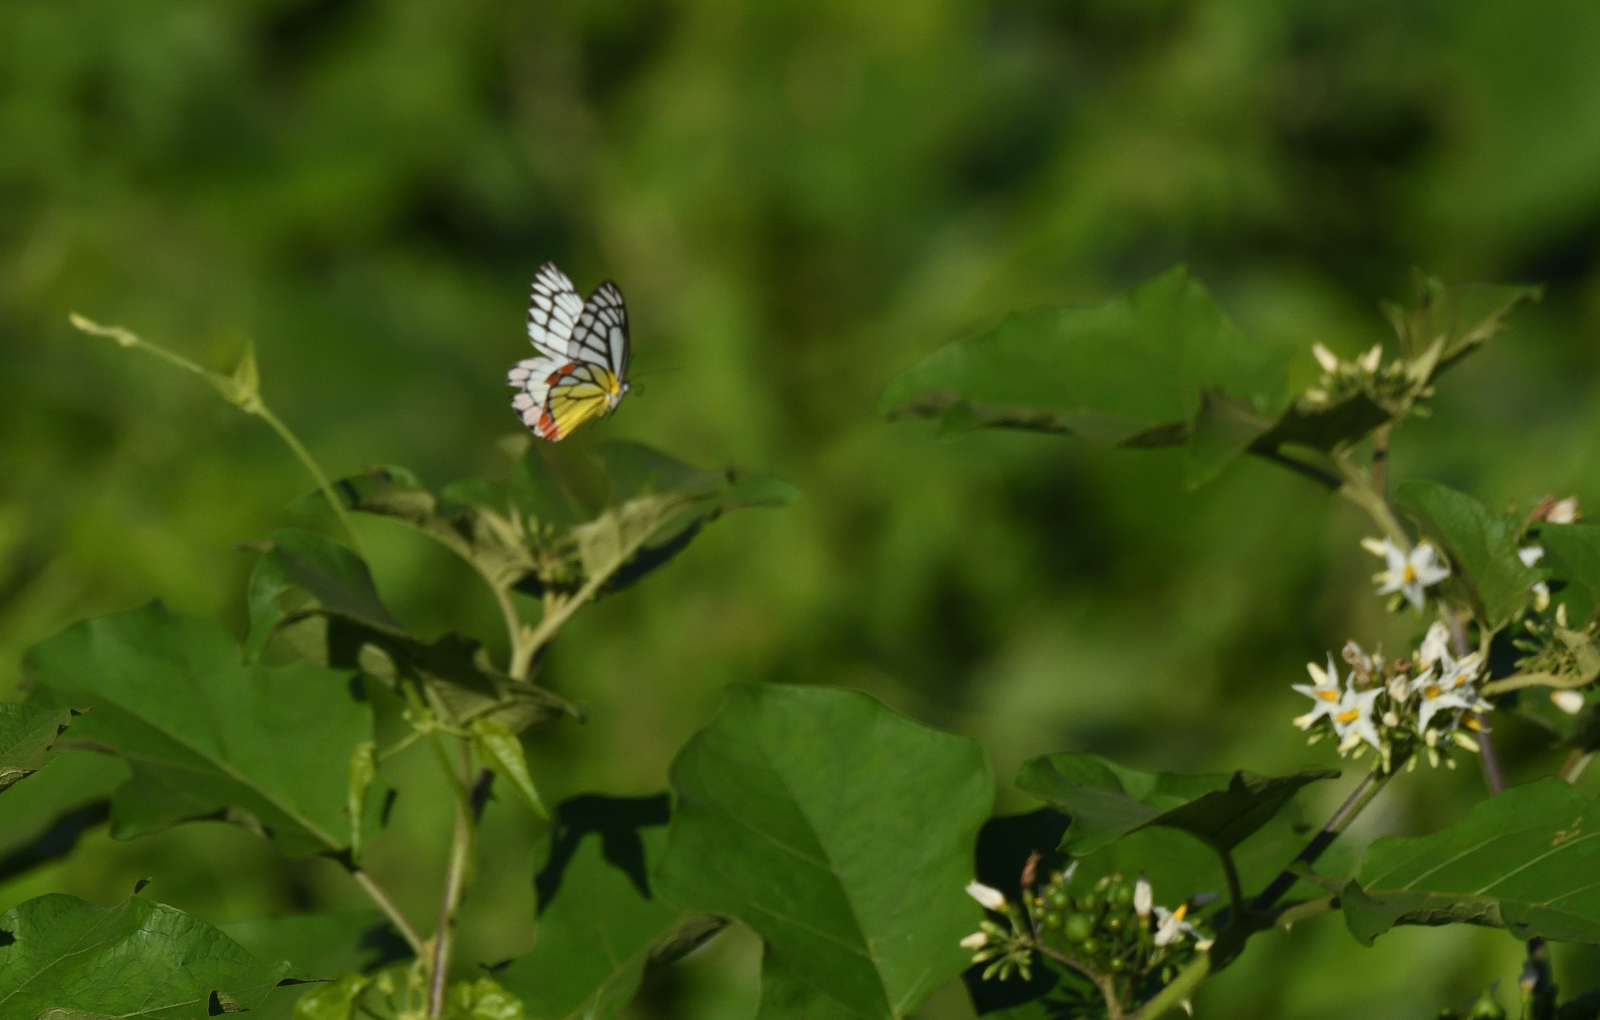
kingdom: Animalia
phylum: Arthropoda
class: Insecta
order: Lepidoptera
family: Pieridae
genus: Delias
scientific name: Delias eucharis
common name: Common jezebel
